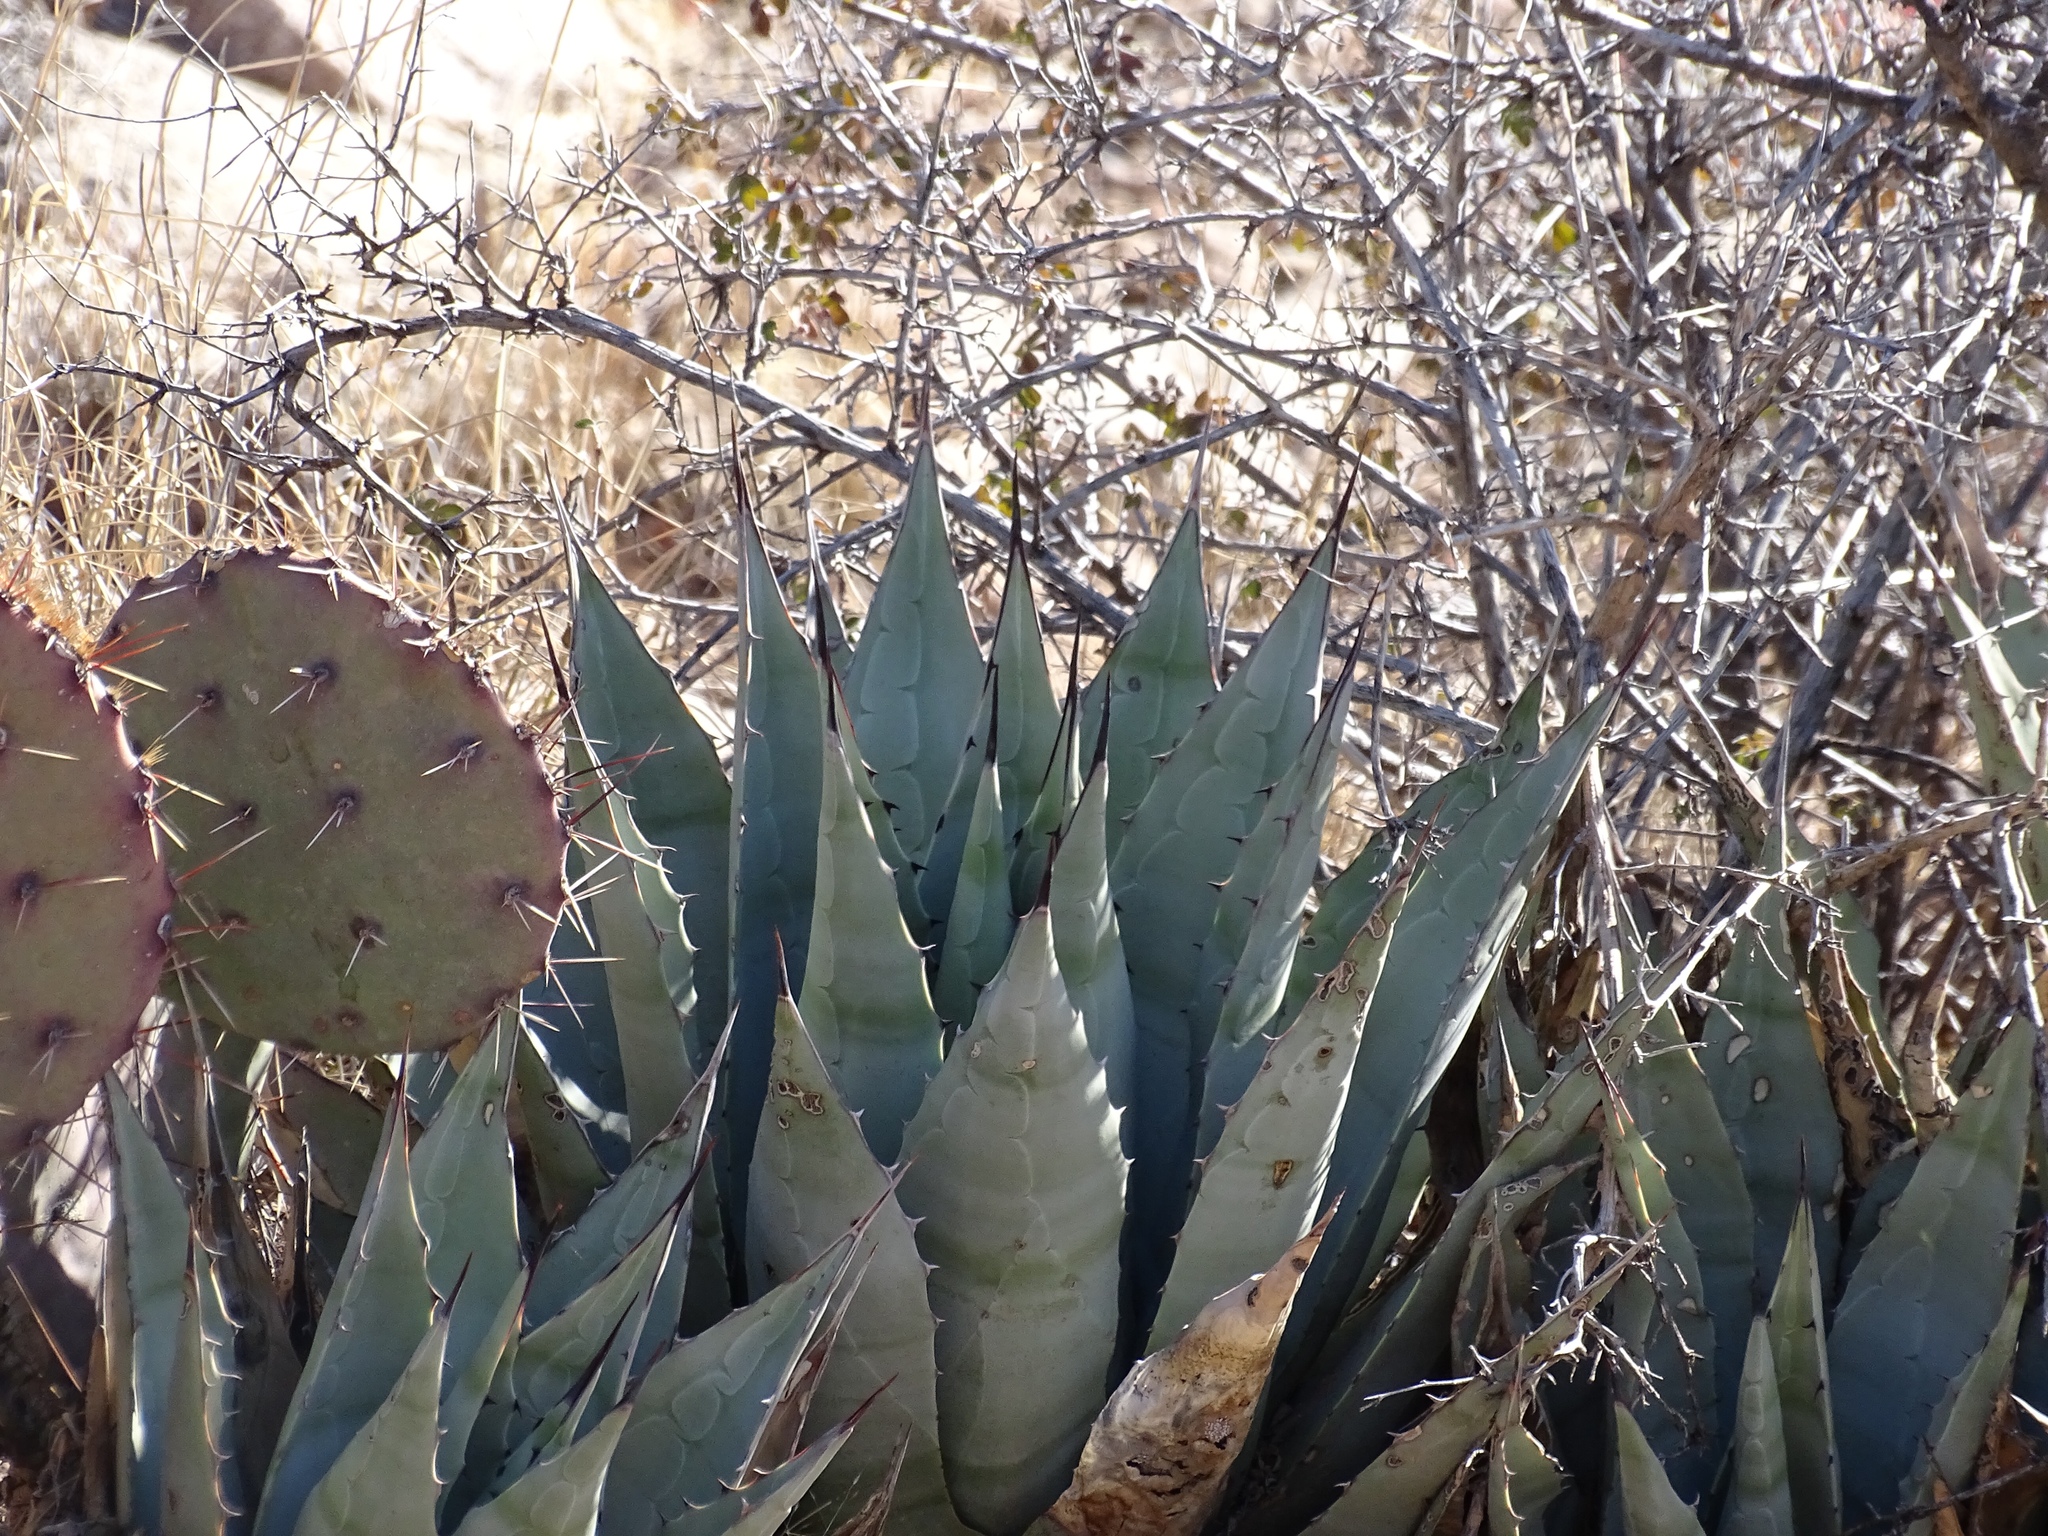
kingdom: Plantae
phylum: Tracheophyta
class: Liliopsida
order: Asparagales
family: Asparagaceae
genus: Agave
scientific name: Agave parryi
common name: Parry's agave
